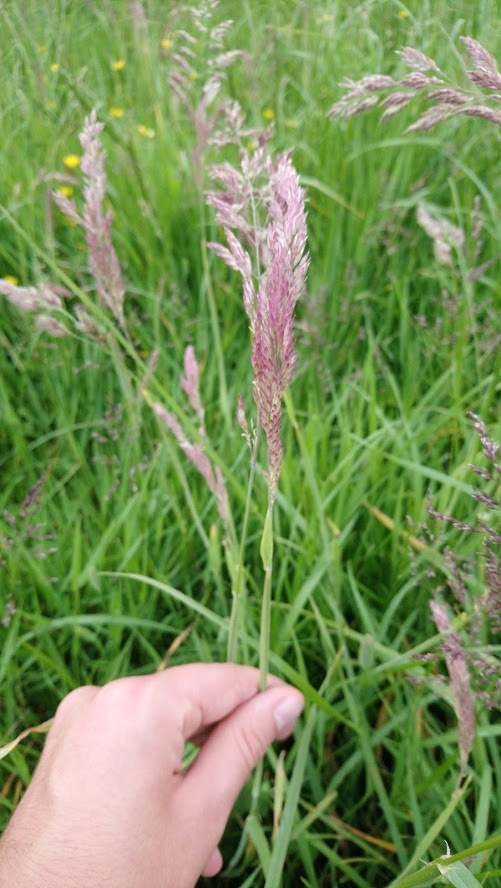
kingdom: Plantae
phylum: Tracheophyta
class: Liliopsida
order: Poales
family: Poaceae
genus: Holcus
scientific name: Holcus lanatus
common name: Yorkshire-fog
